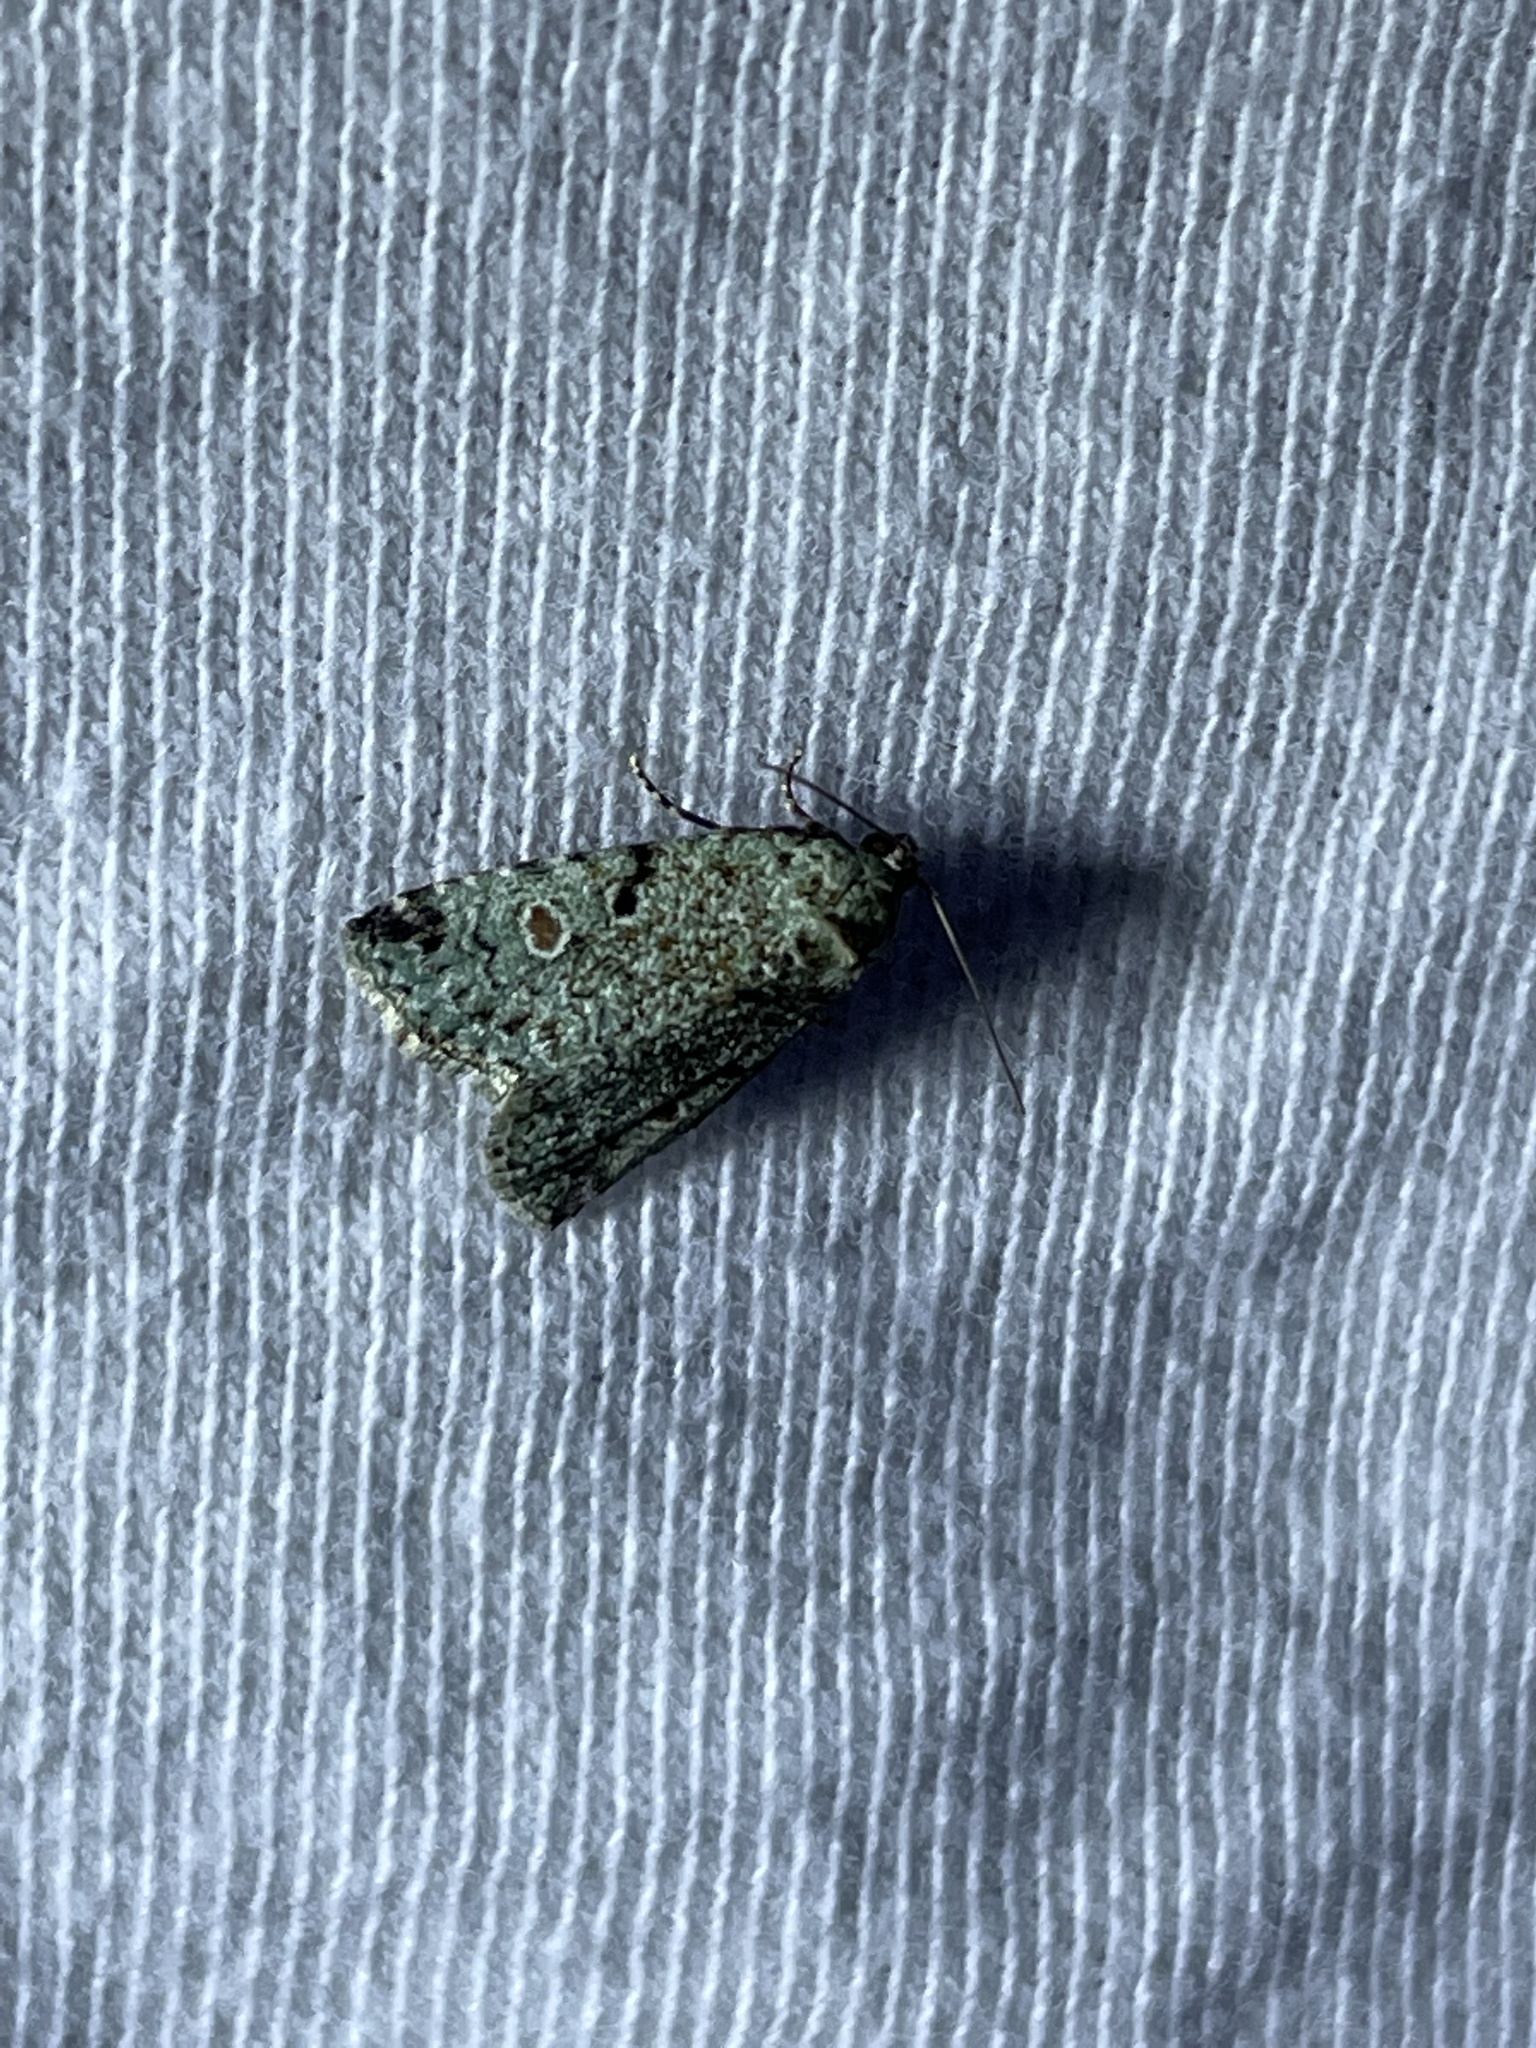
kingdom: Animalia
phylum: Arthropoda
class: Insecta
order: Lepidoptera
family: Noctuidae
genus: Maliattha
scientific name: Maliattha concinnimacula
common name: Red-spotted glyph
